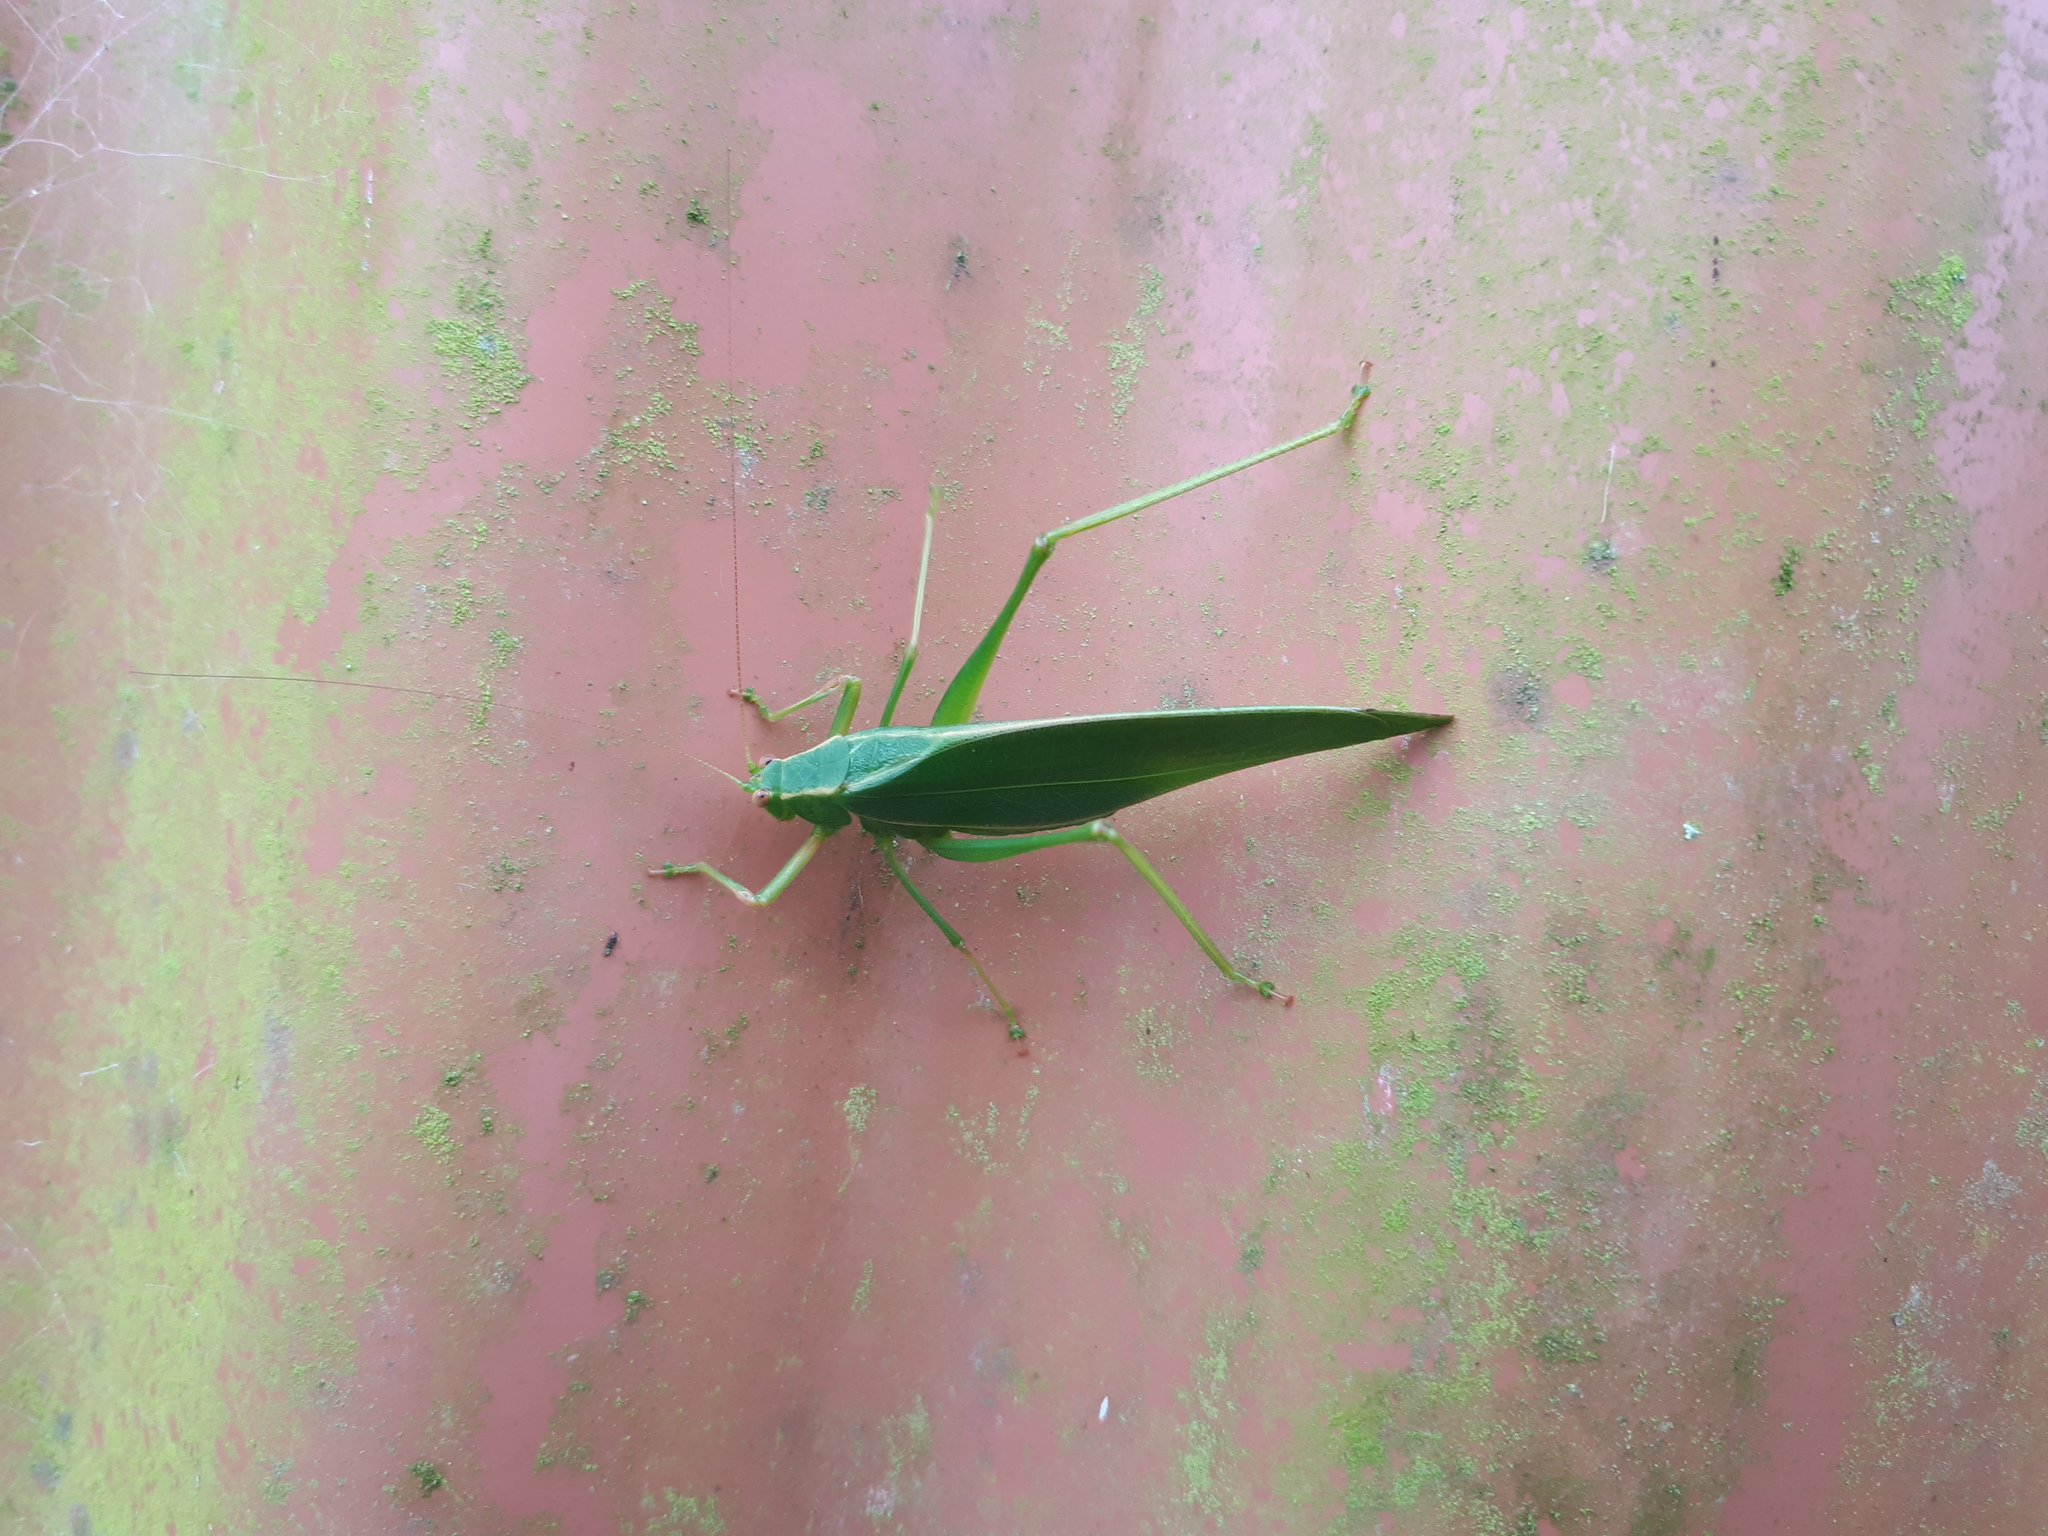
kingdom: Animalia
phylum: Arthropoda
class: Insecta
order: Orthoptera
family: Tettigoniidae
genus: Caedicia
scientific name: Caedicia simplex
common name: Common garden katydid
